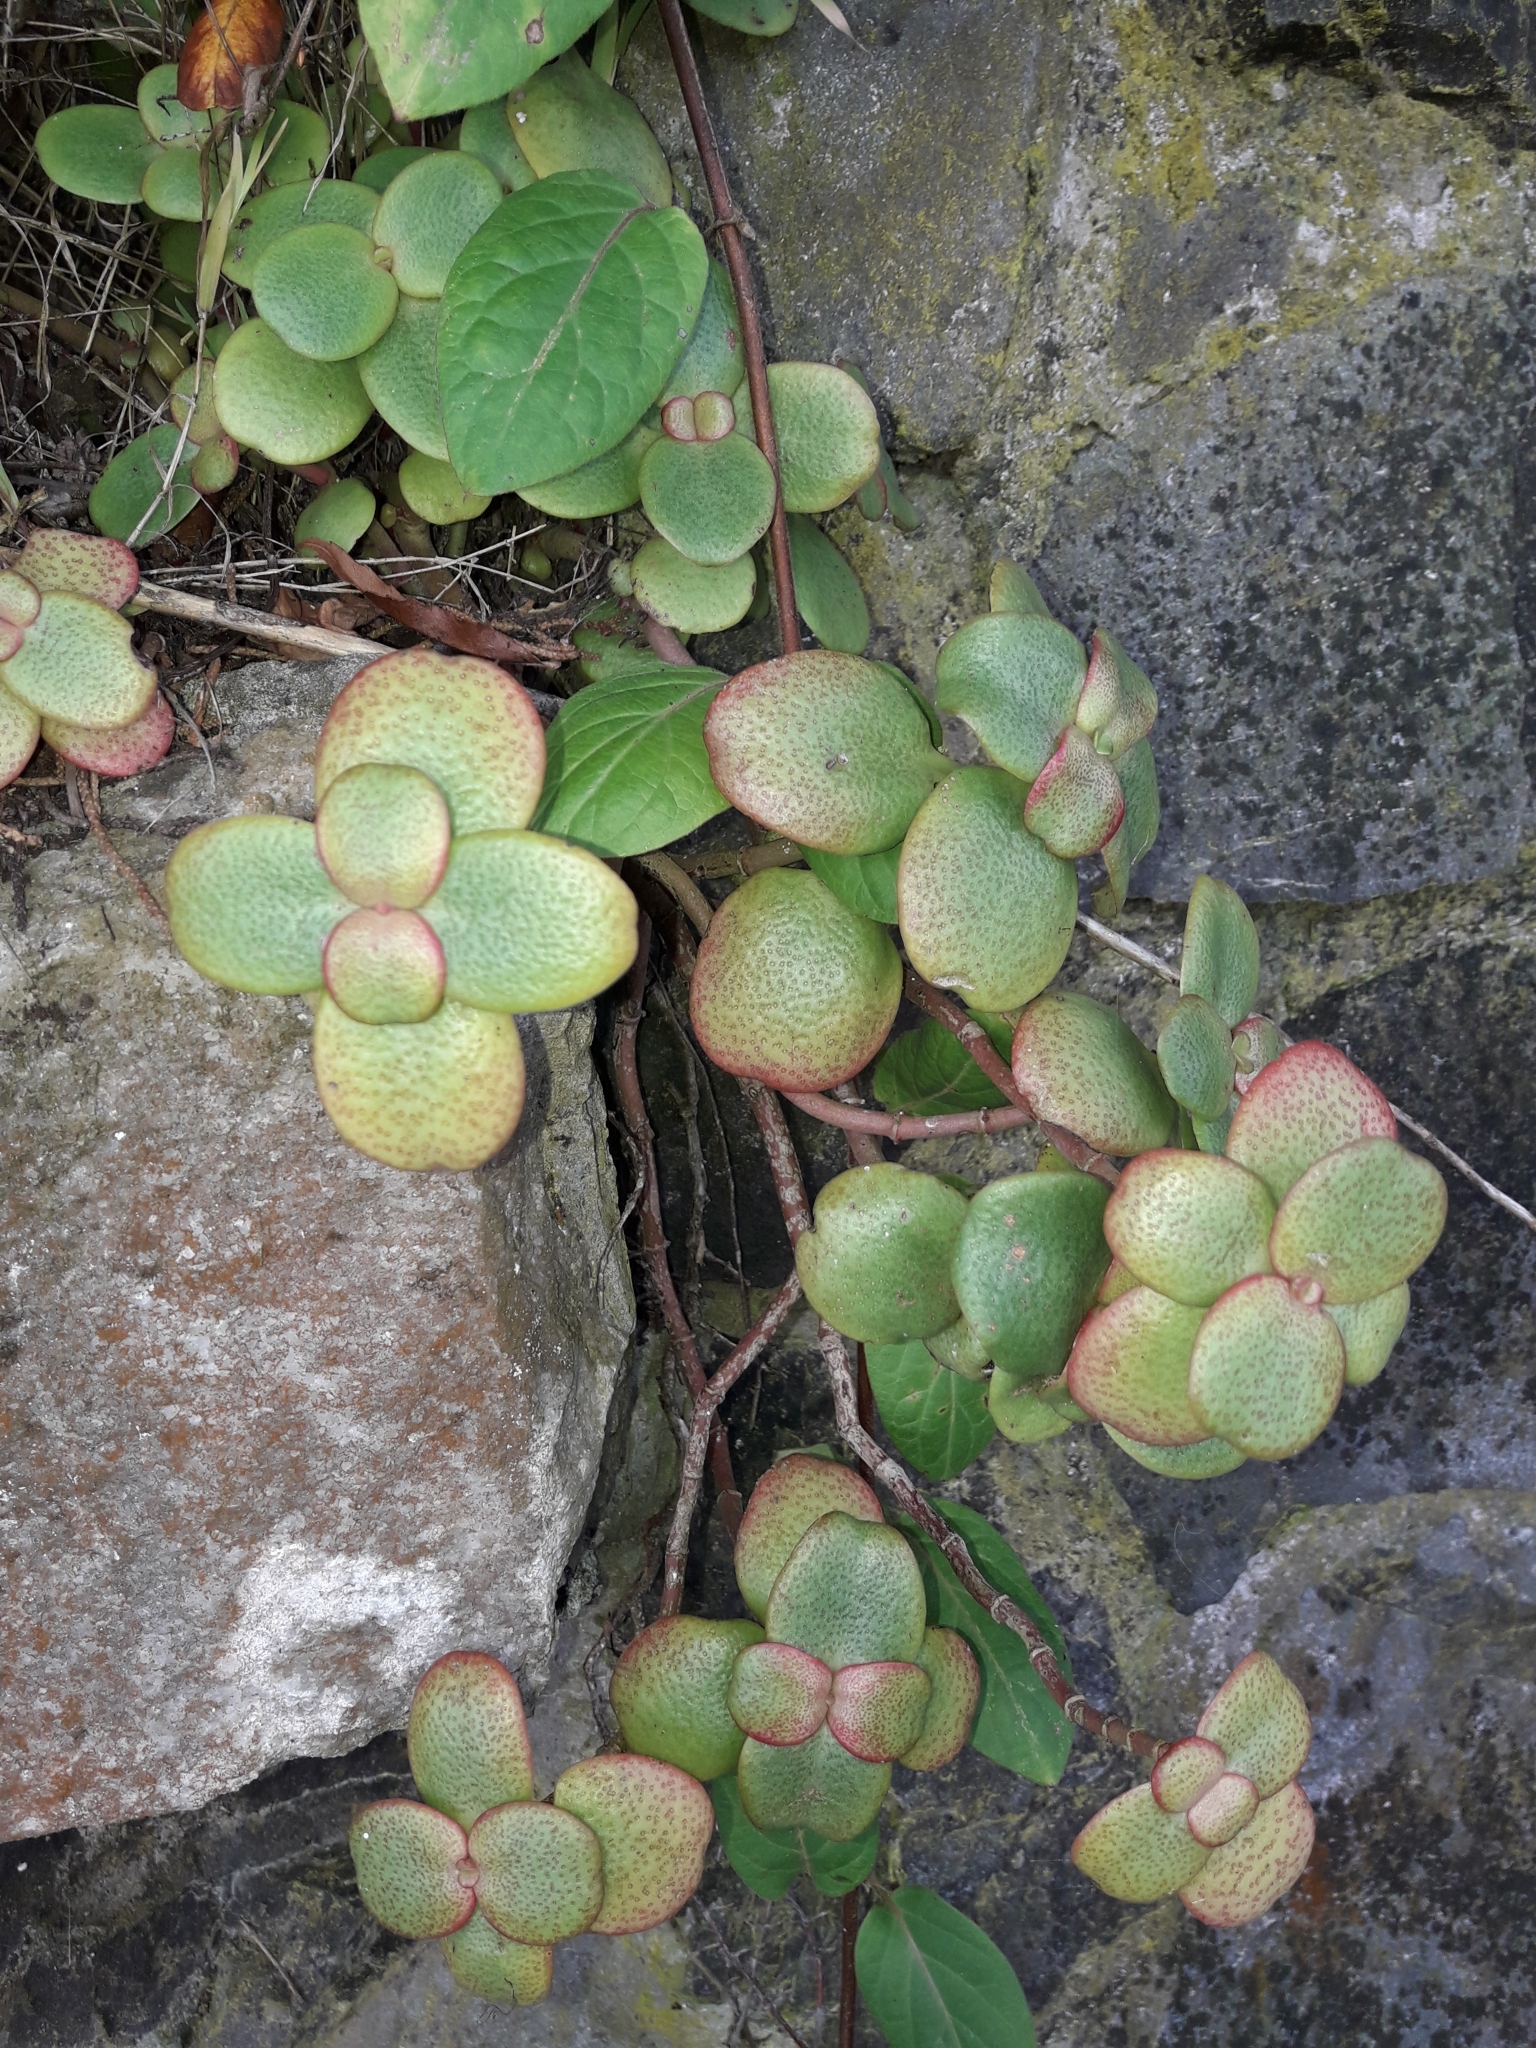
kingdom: Plantae
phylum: Tracheophyta
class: Magnoliopsida
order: Saxifragales
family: Crassulaceae
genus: Crassula
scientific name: Crassula multicava
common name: Cape province pygmyweed
